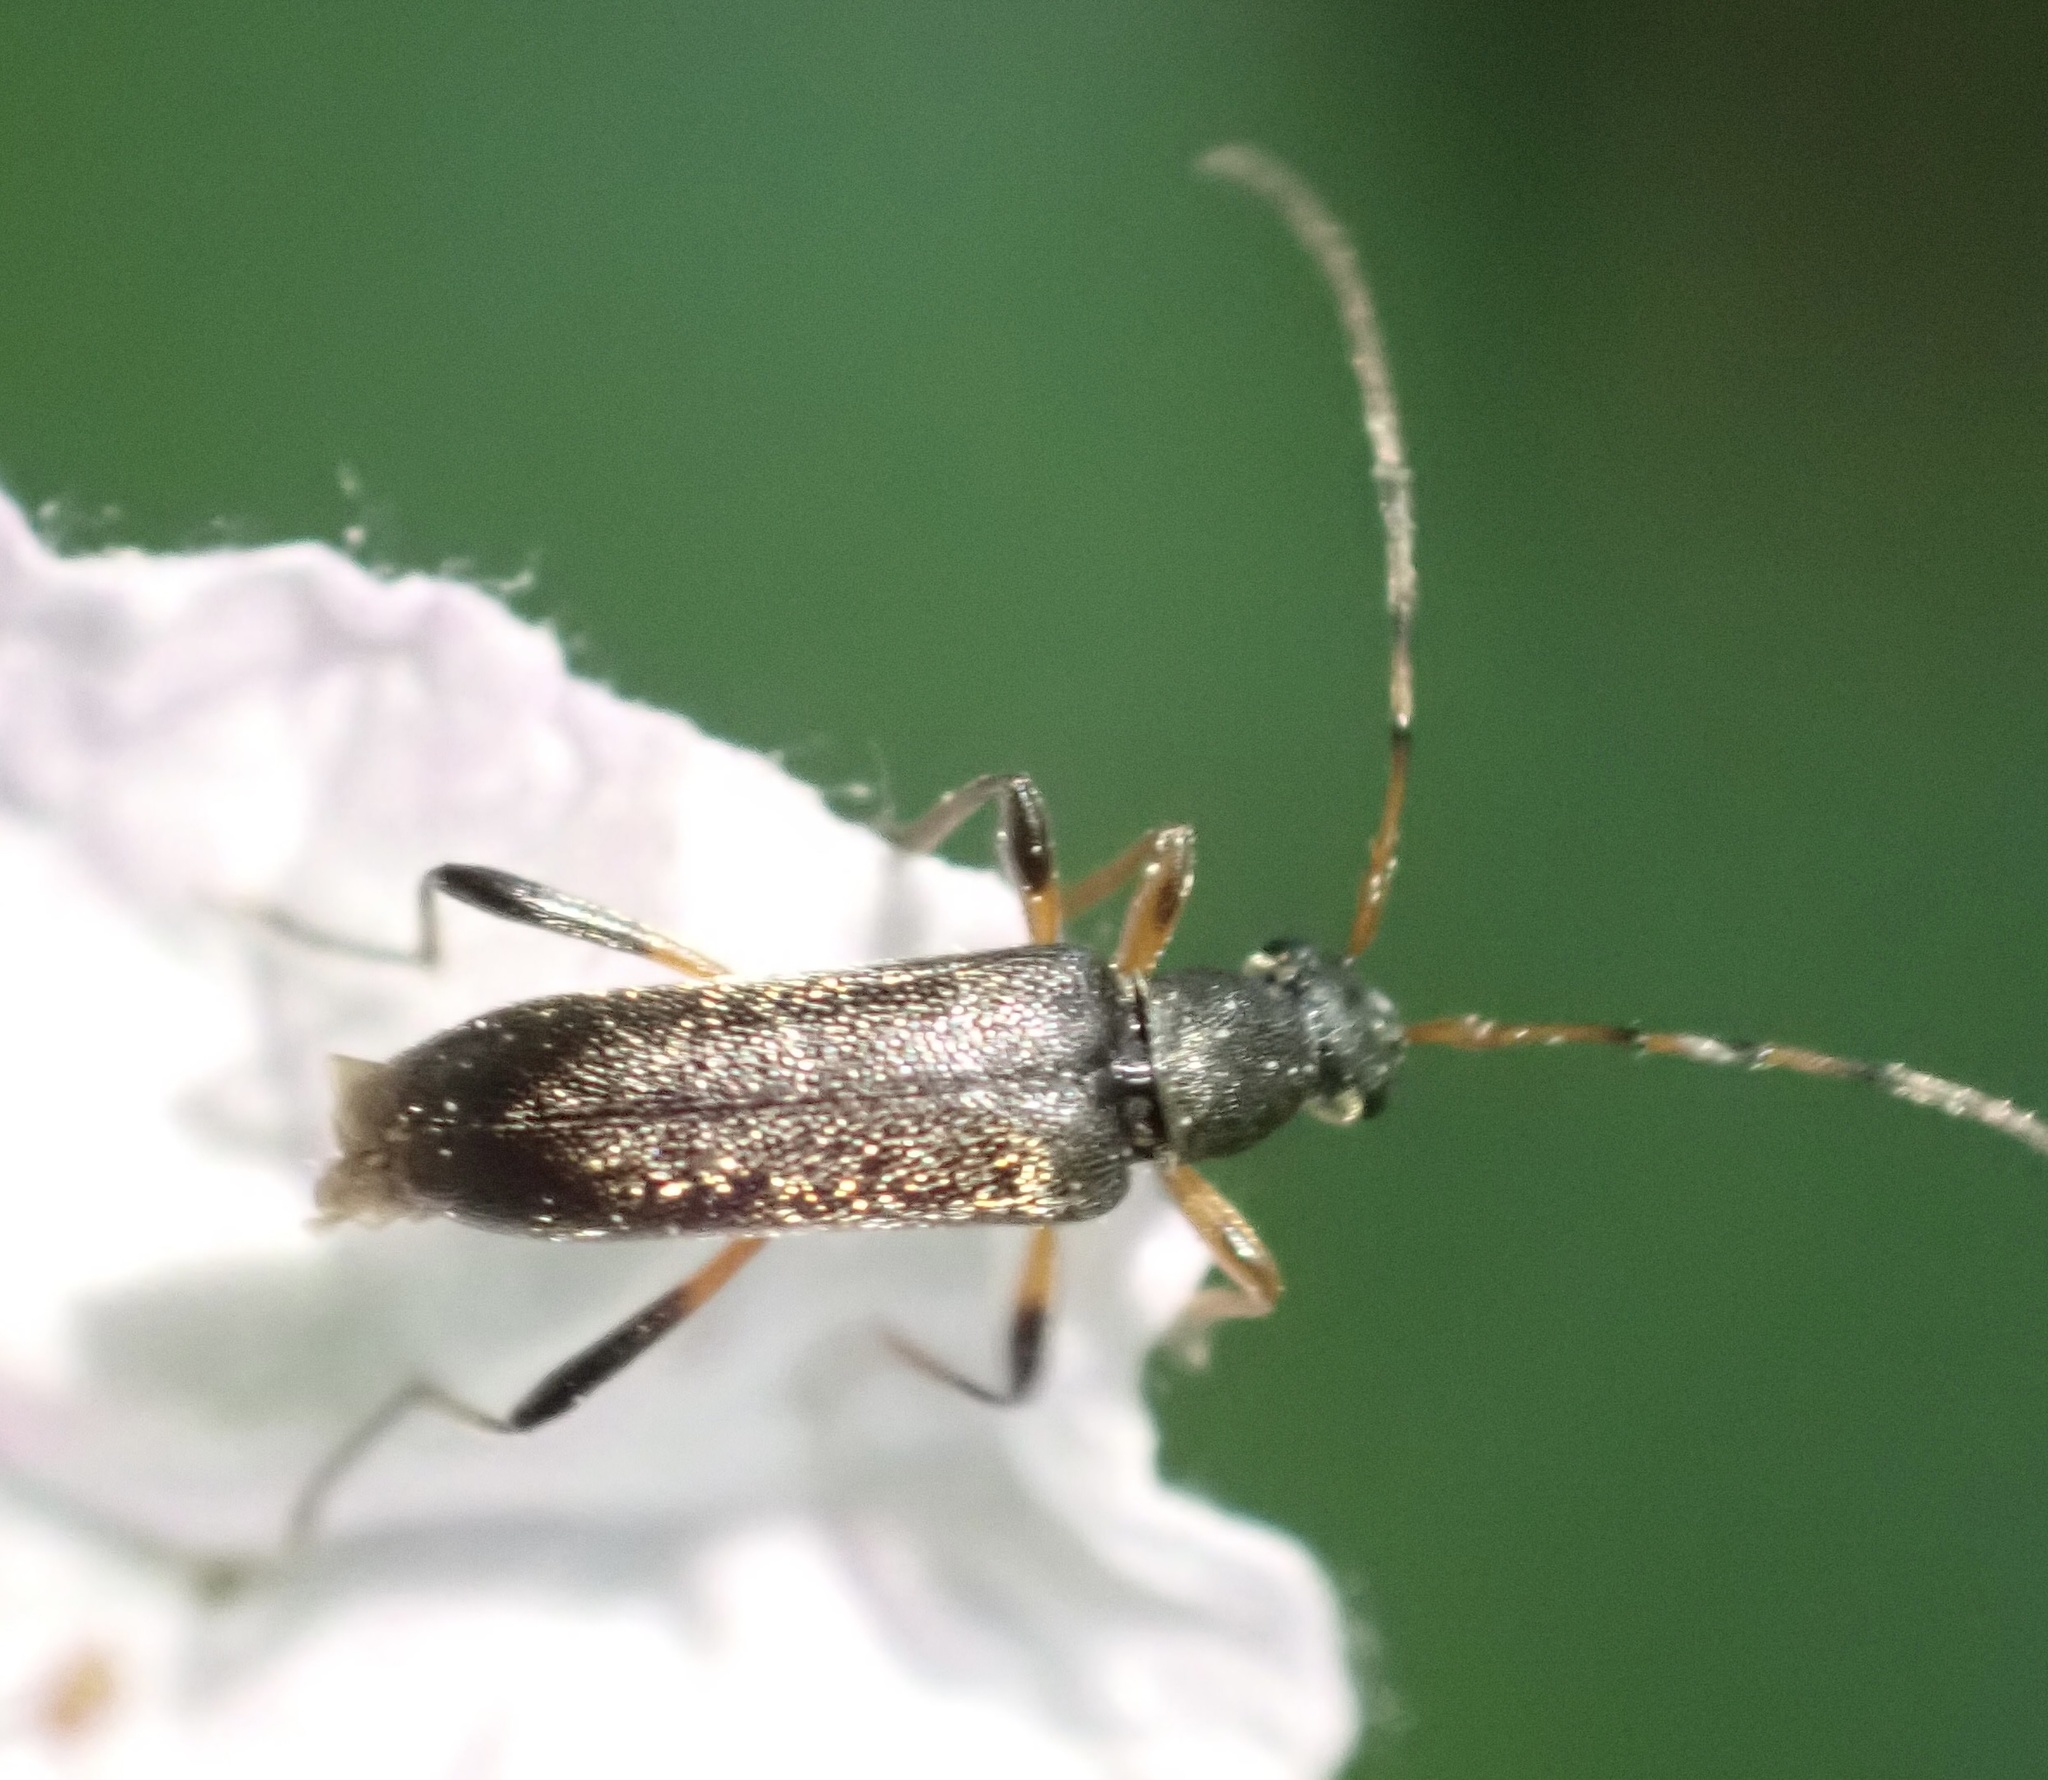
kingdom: Animalia
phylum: Arthropoda
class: Insecta
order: Coleoptera
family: Cerambycidae
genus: Grammoptera
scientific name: Grammoptera ruficornis
